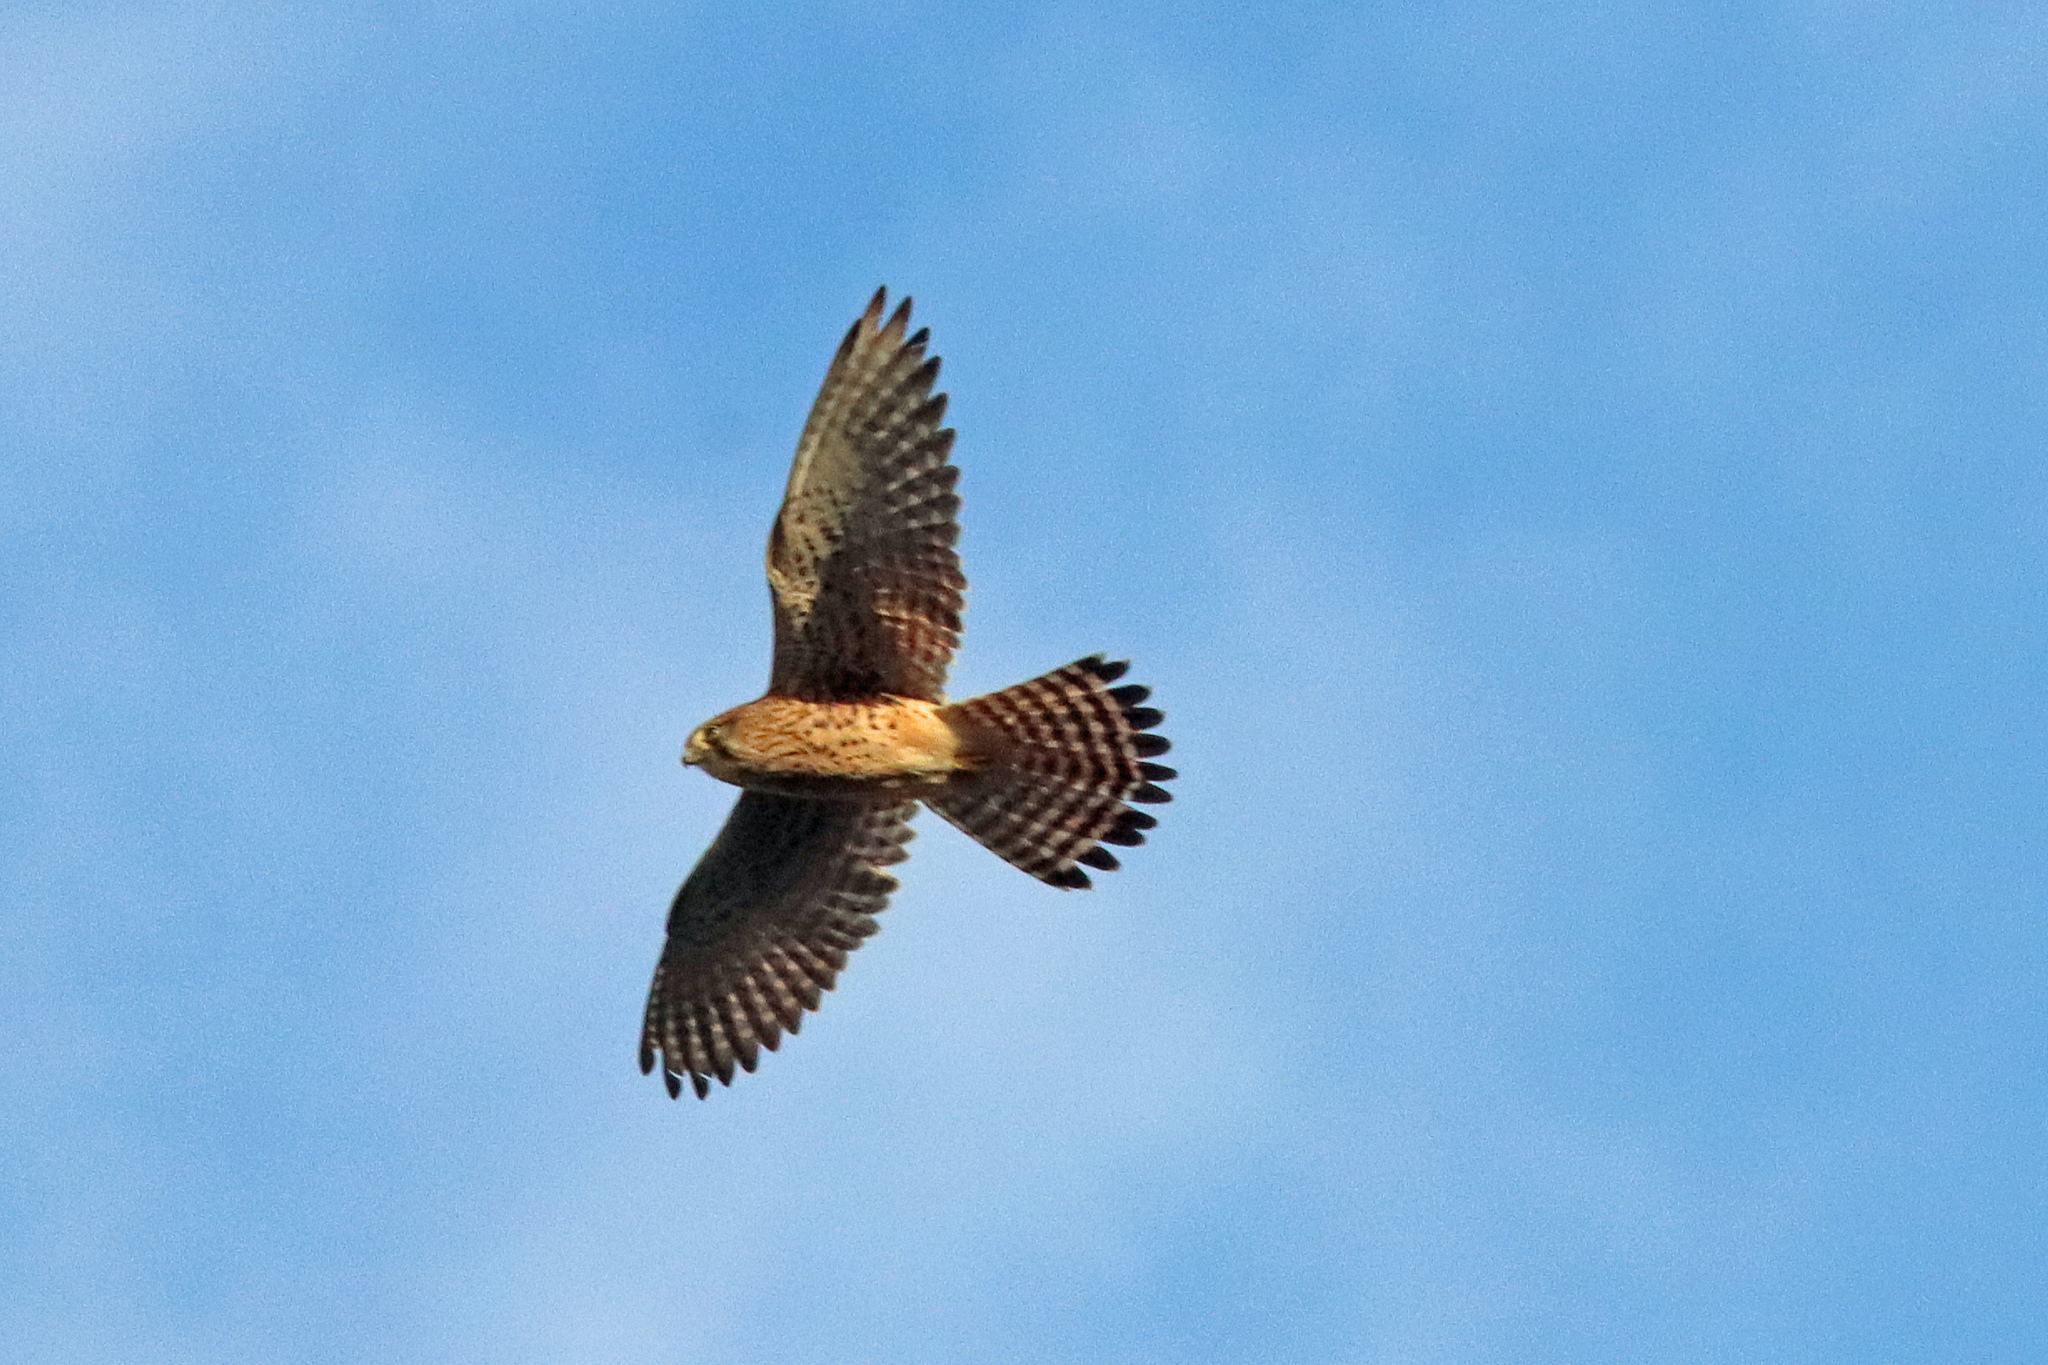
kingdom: Animalia
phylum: Chordata
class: Aves
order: Falconiformes
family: Falconidae
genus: Falco
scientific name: Falco tinnunculus
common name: Common kestrel
